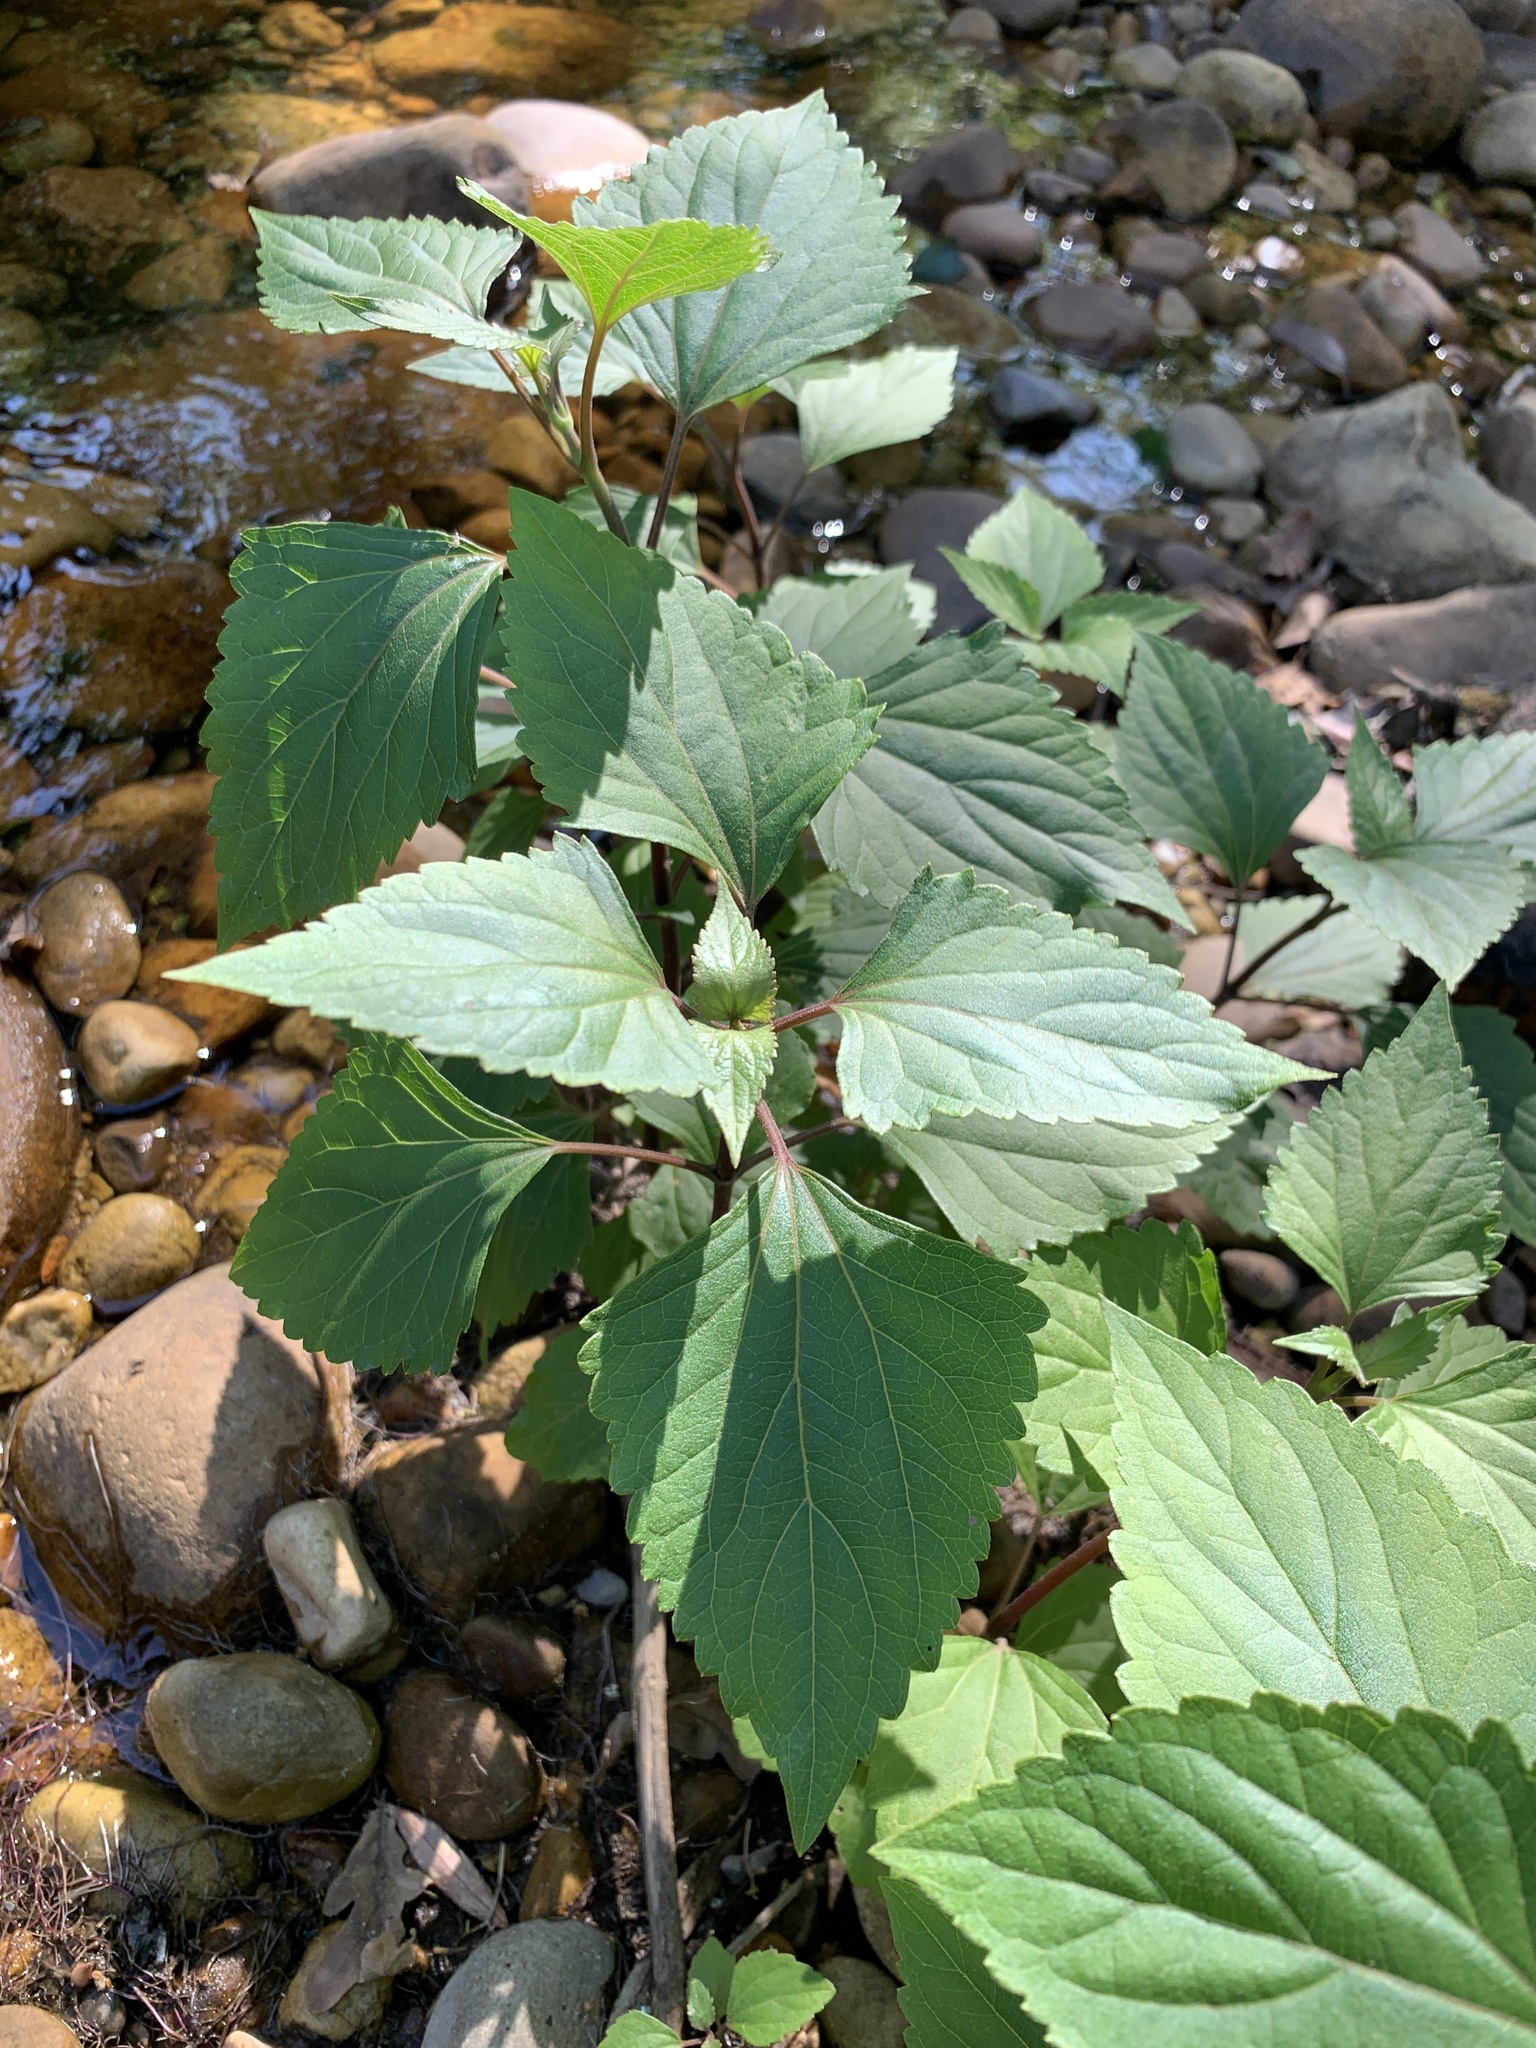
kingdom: Plantae
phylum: Tracheophyta
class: Magnoliopsida
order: Asterales
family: Asteraceae
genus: Ageratina
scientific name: Ageratina adenophora
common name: Sticky snakeroot
